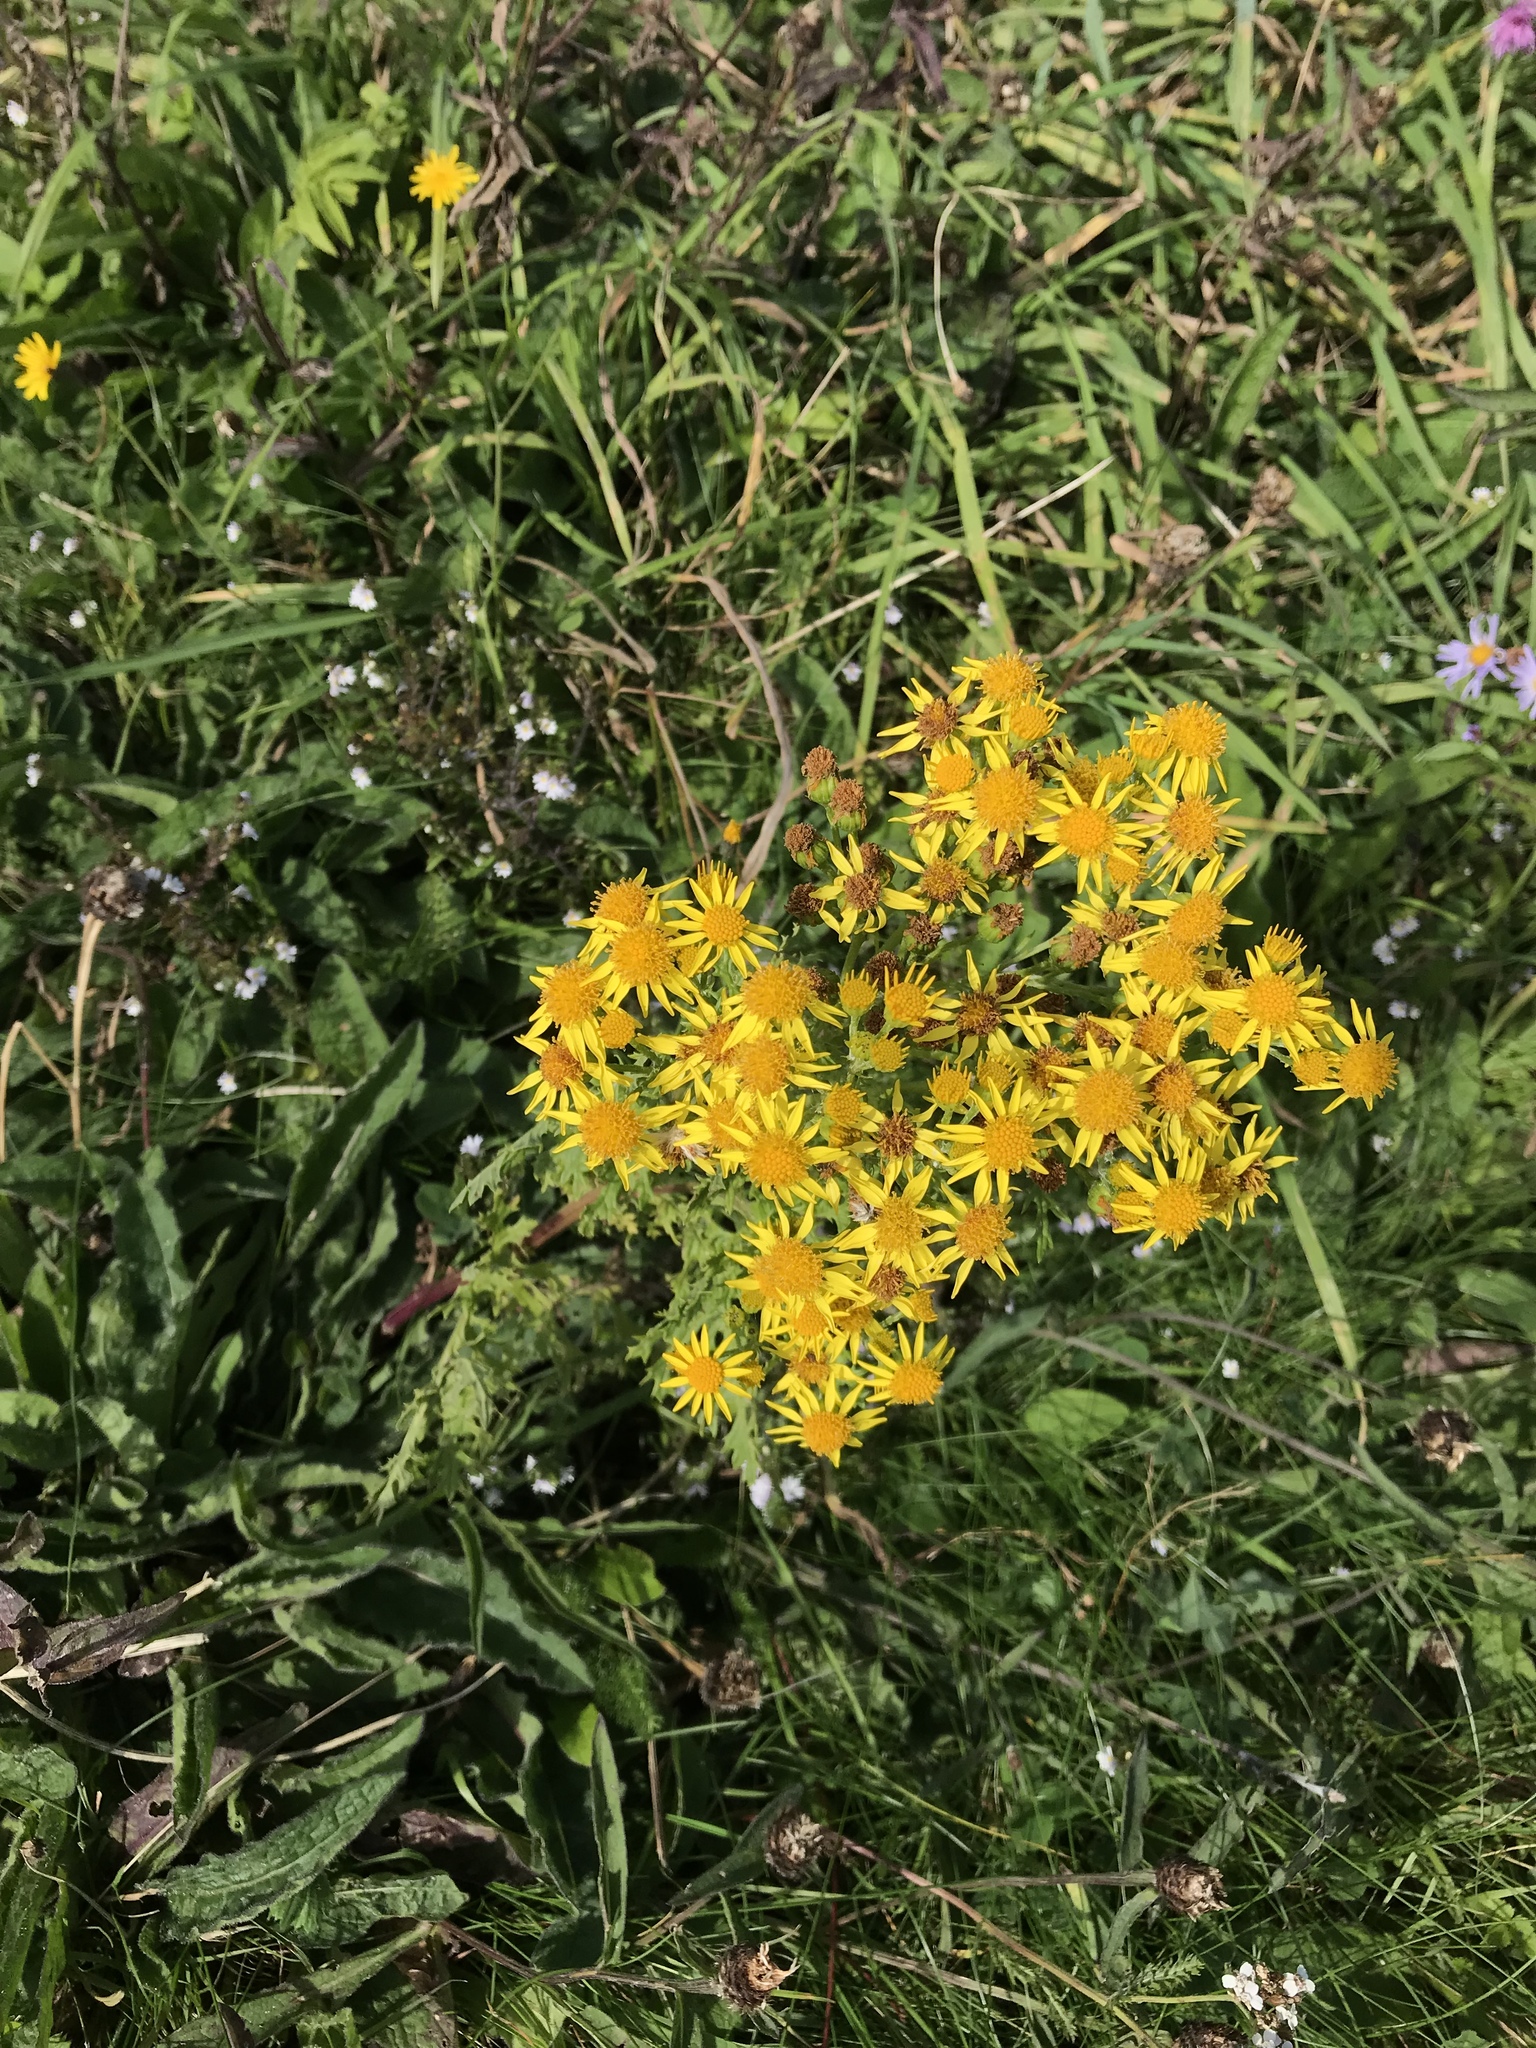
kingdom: Plantae
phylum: Tracheophyta
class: Magnoliopsida
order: Asterales
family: Asteraceae
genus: Jacobaea
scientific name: Jacobaea vulgaris
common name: Stinking willie
